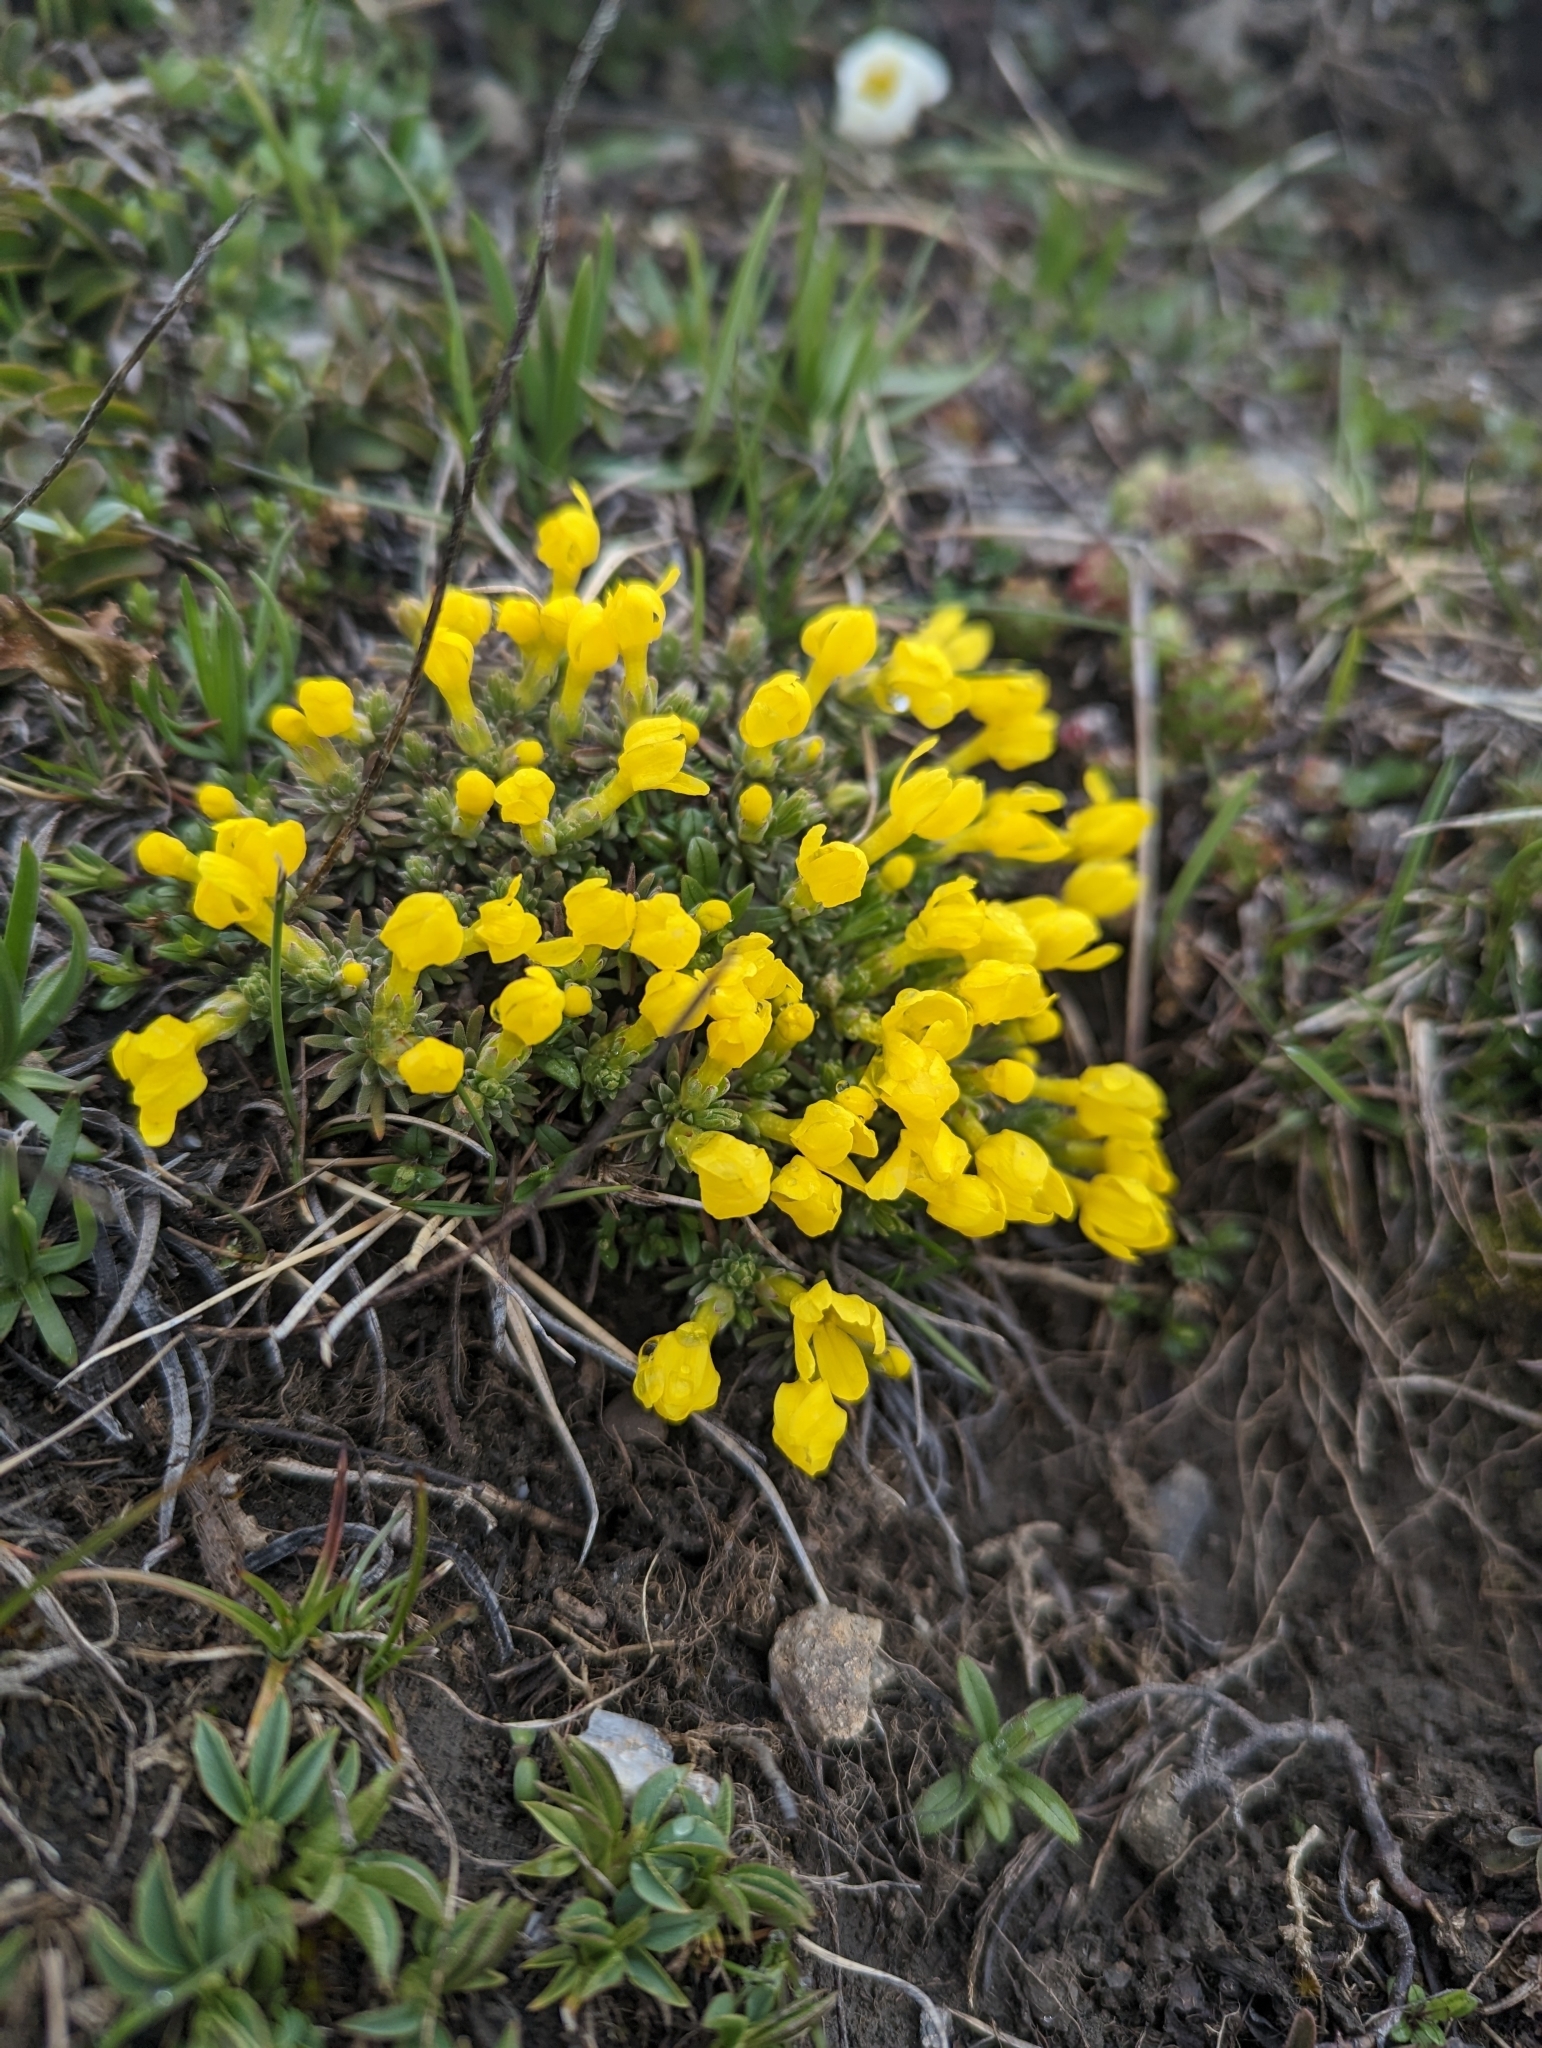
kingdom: Plantae
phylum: Tracheophyta
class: Magnoliopsida
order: Ericales
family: Primulaceae
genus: Androsace
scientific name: Androsace vitaliana
